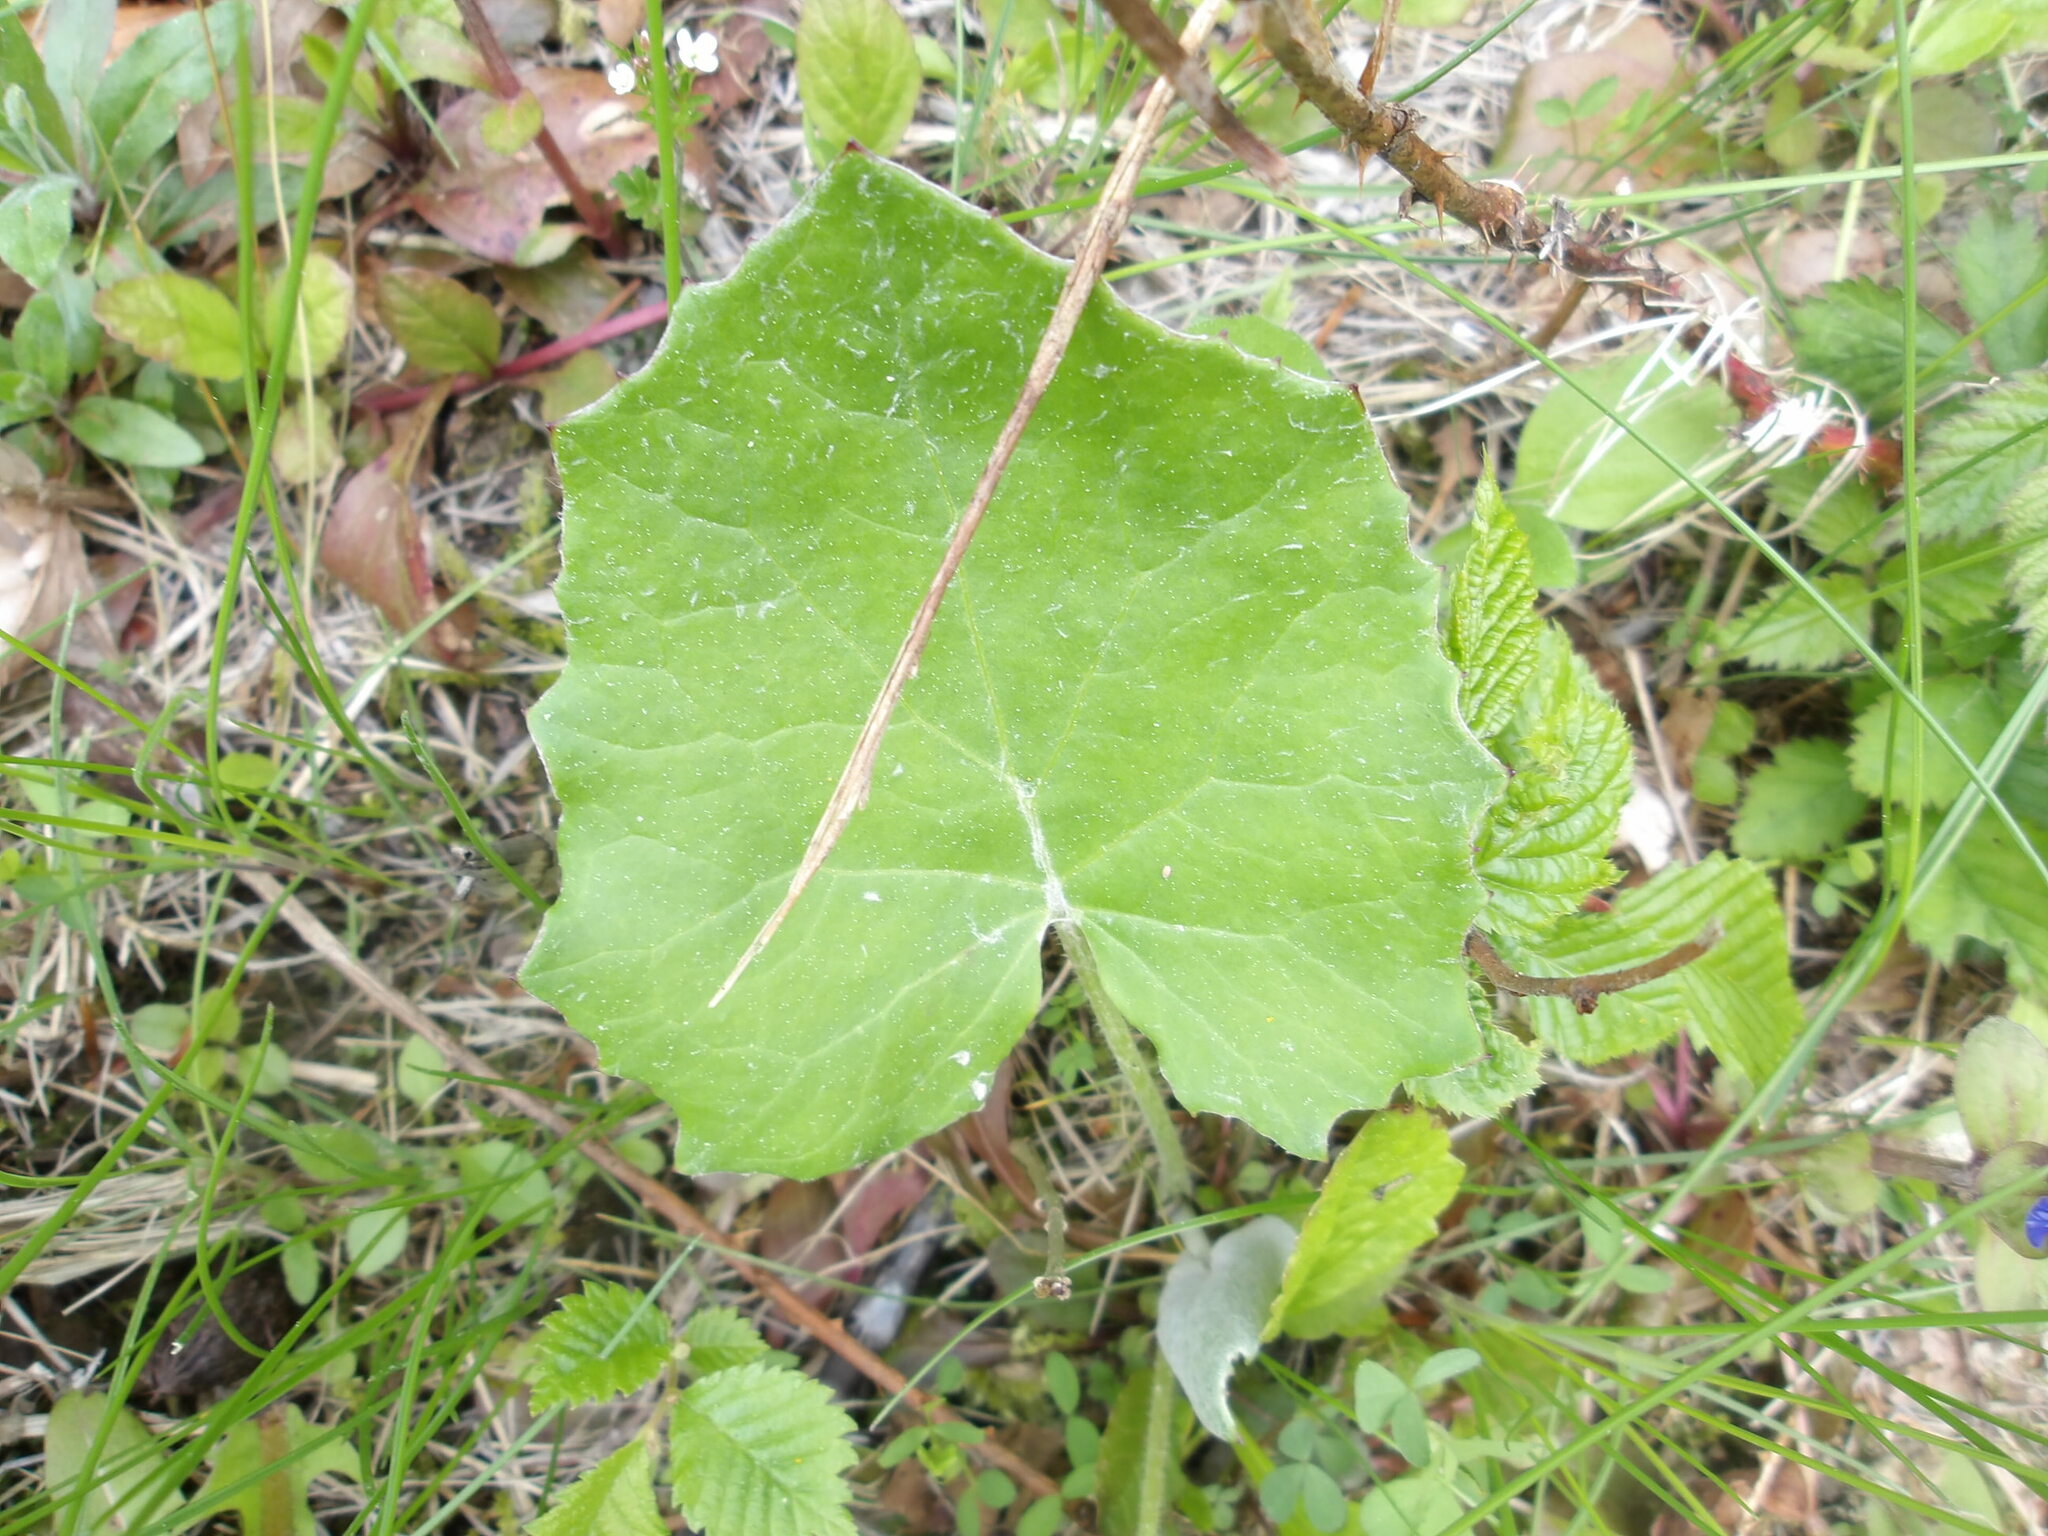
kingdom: Plantae
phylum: Tracheophyta
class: Magnoliopsida
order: Asterales
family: Asteraceae
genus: Tussilago
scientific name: Tussilago farfara
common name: Coltsfoot
